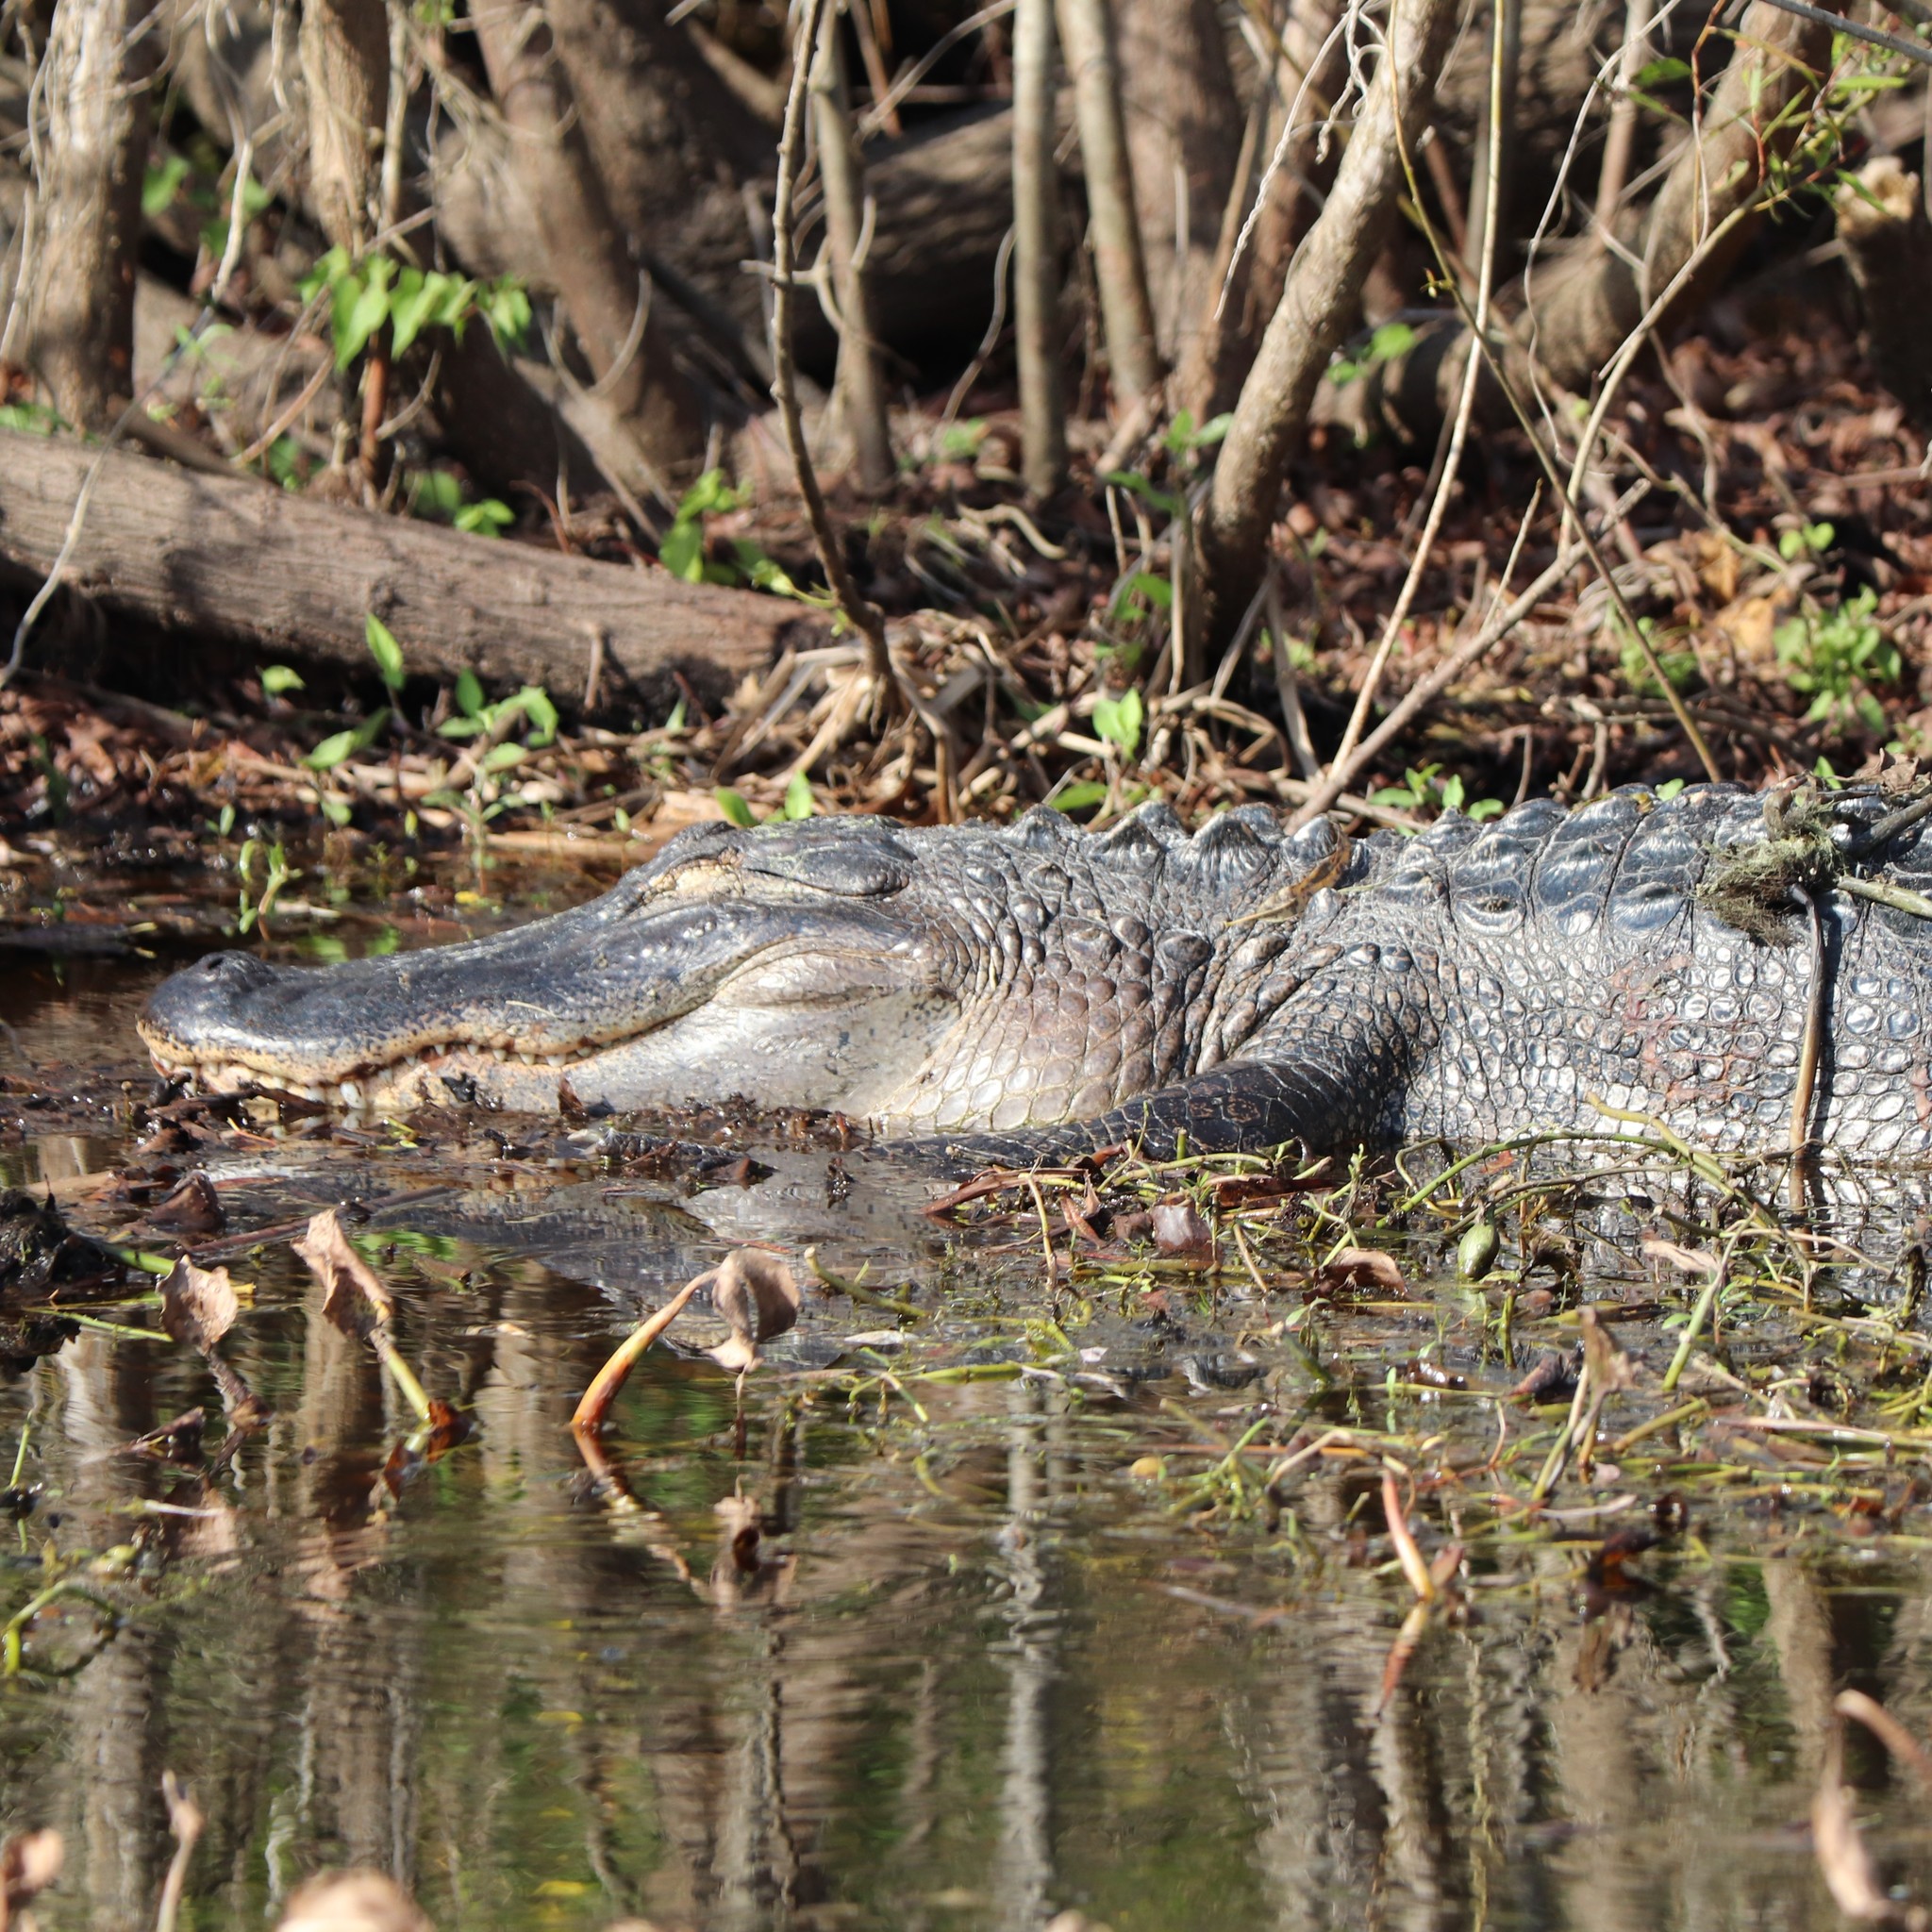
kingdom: Animalia
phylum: Chordata
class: Crocodylia
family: Alligatoridae
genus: Alligator
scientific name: Alligator mississippiensis
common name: American alligator
